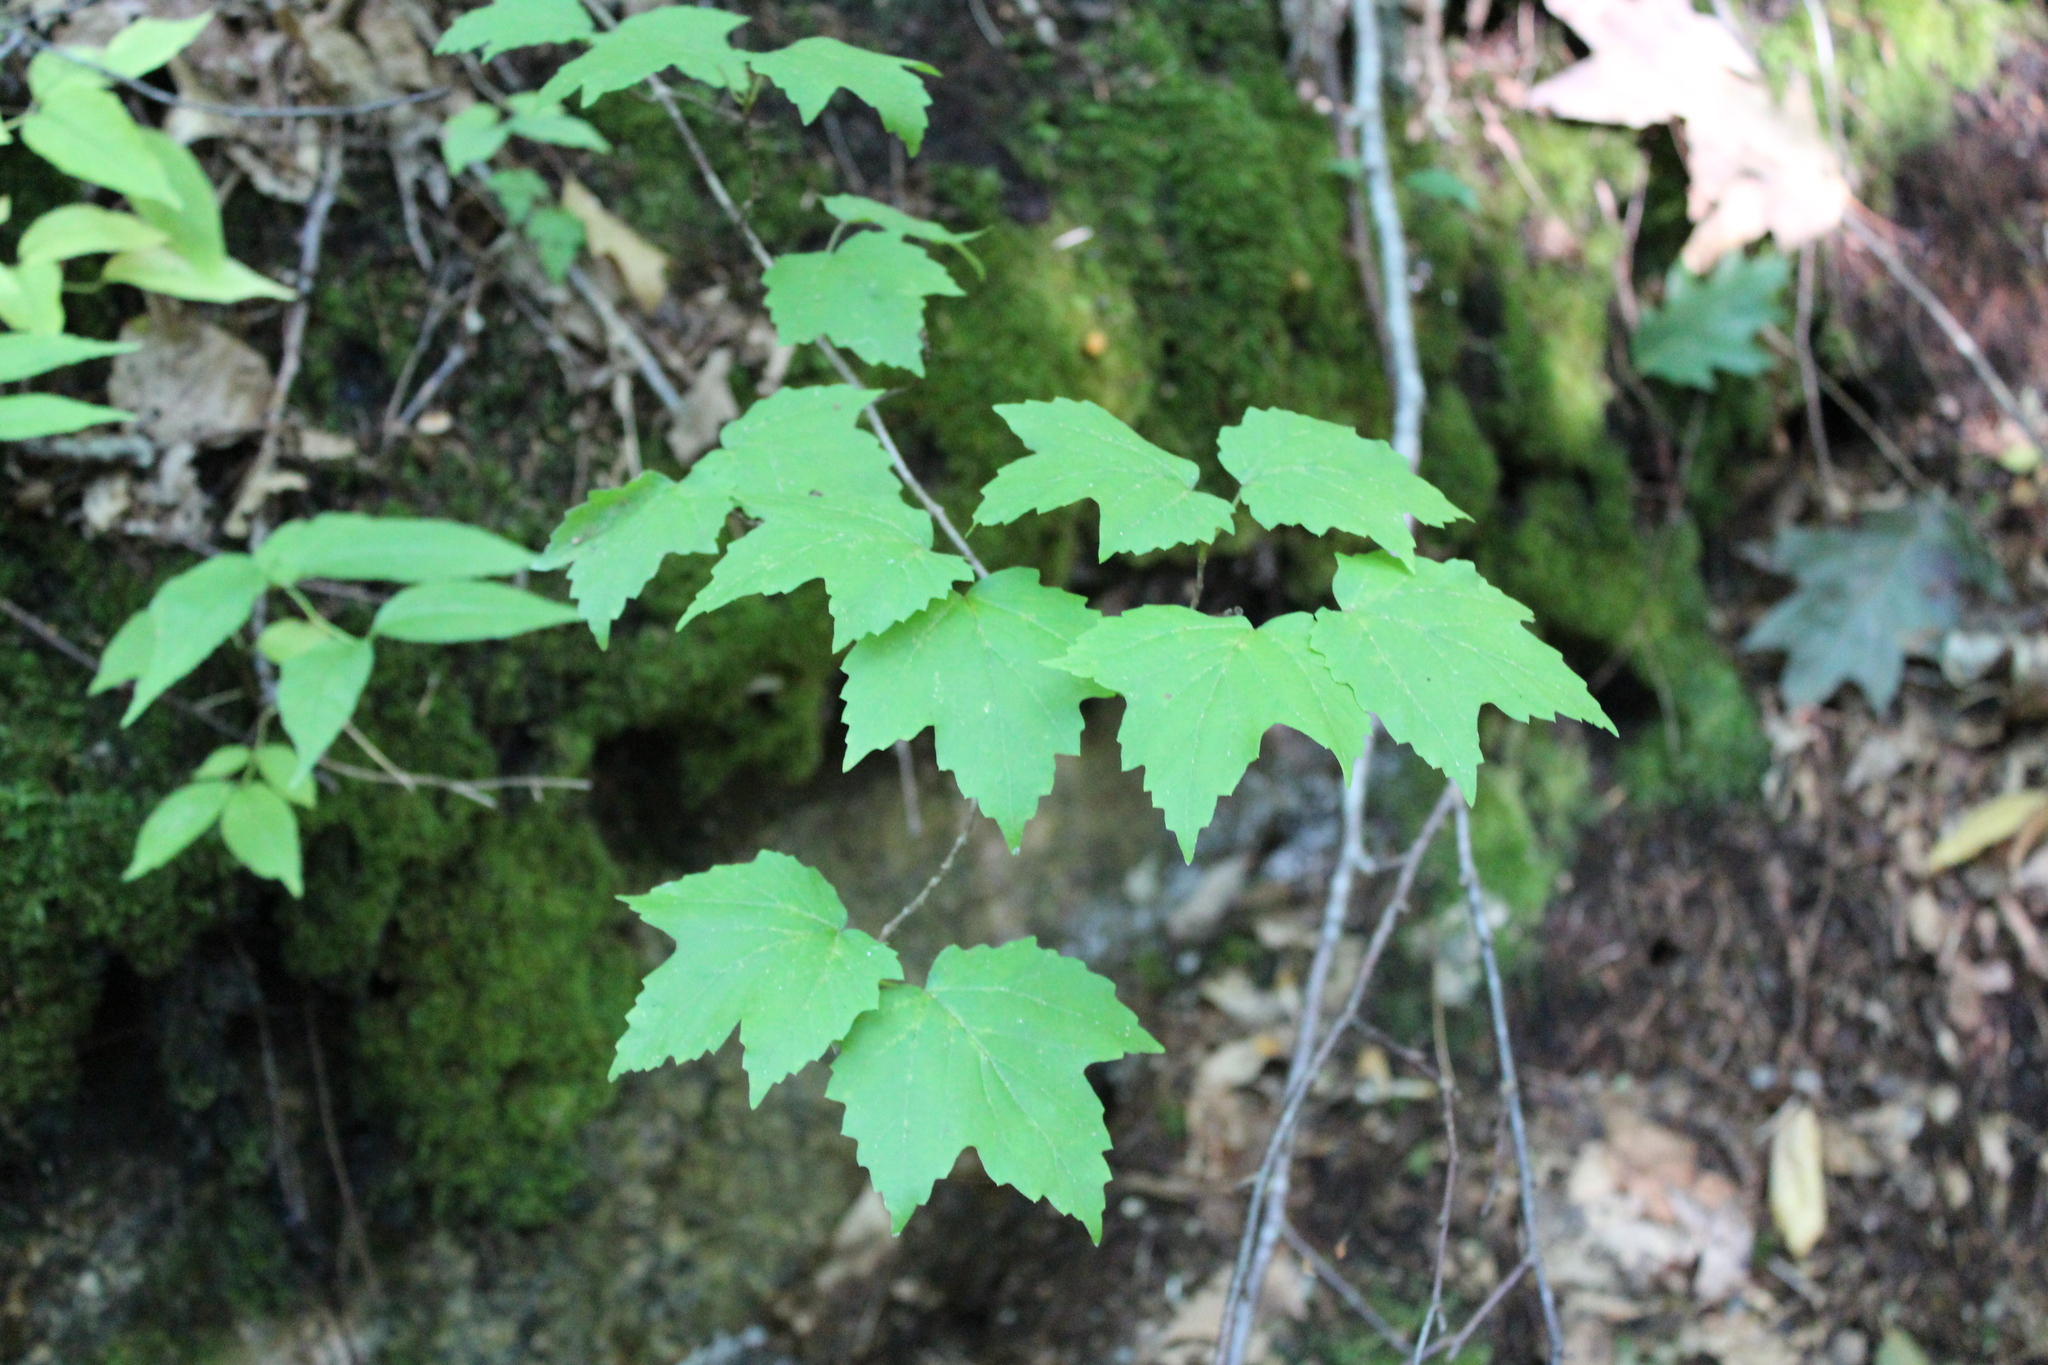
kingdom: Plantae
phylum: Tracheophyta
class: Magnoliopsida
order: Dipsacales
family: Viburnaceae
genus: Viburnum
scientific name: Viburnum acerifolium
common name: Dockmackie
